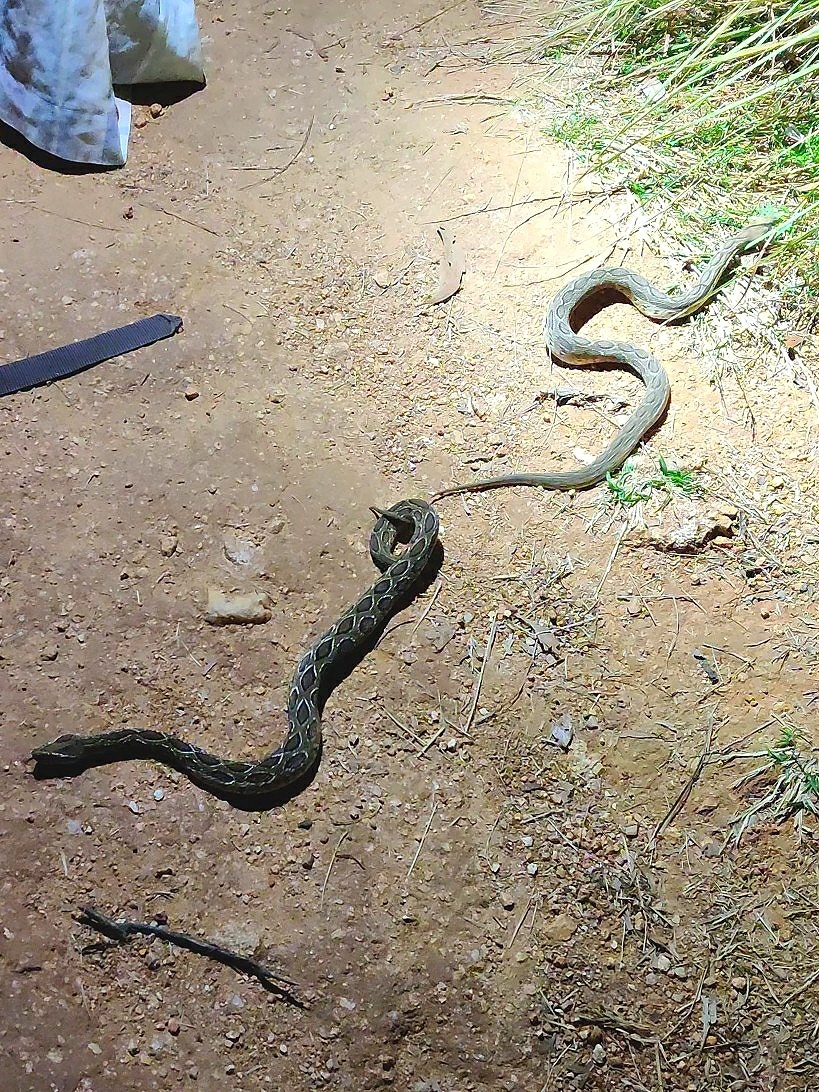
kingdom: Animalia
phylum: Chordata
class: Squamata
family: Viperidae
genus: Daboia
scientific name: Daboia russelii
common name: Western russel’s viper
